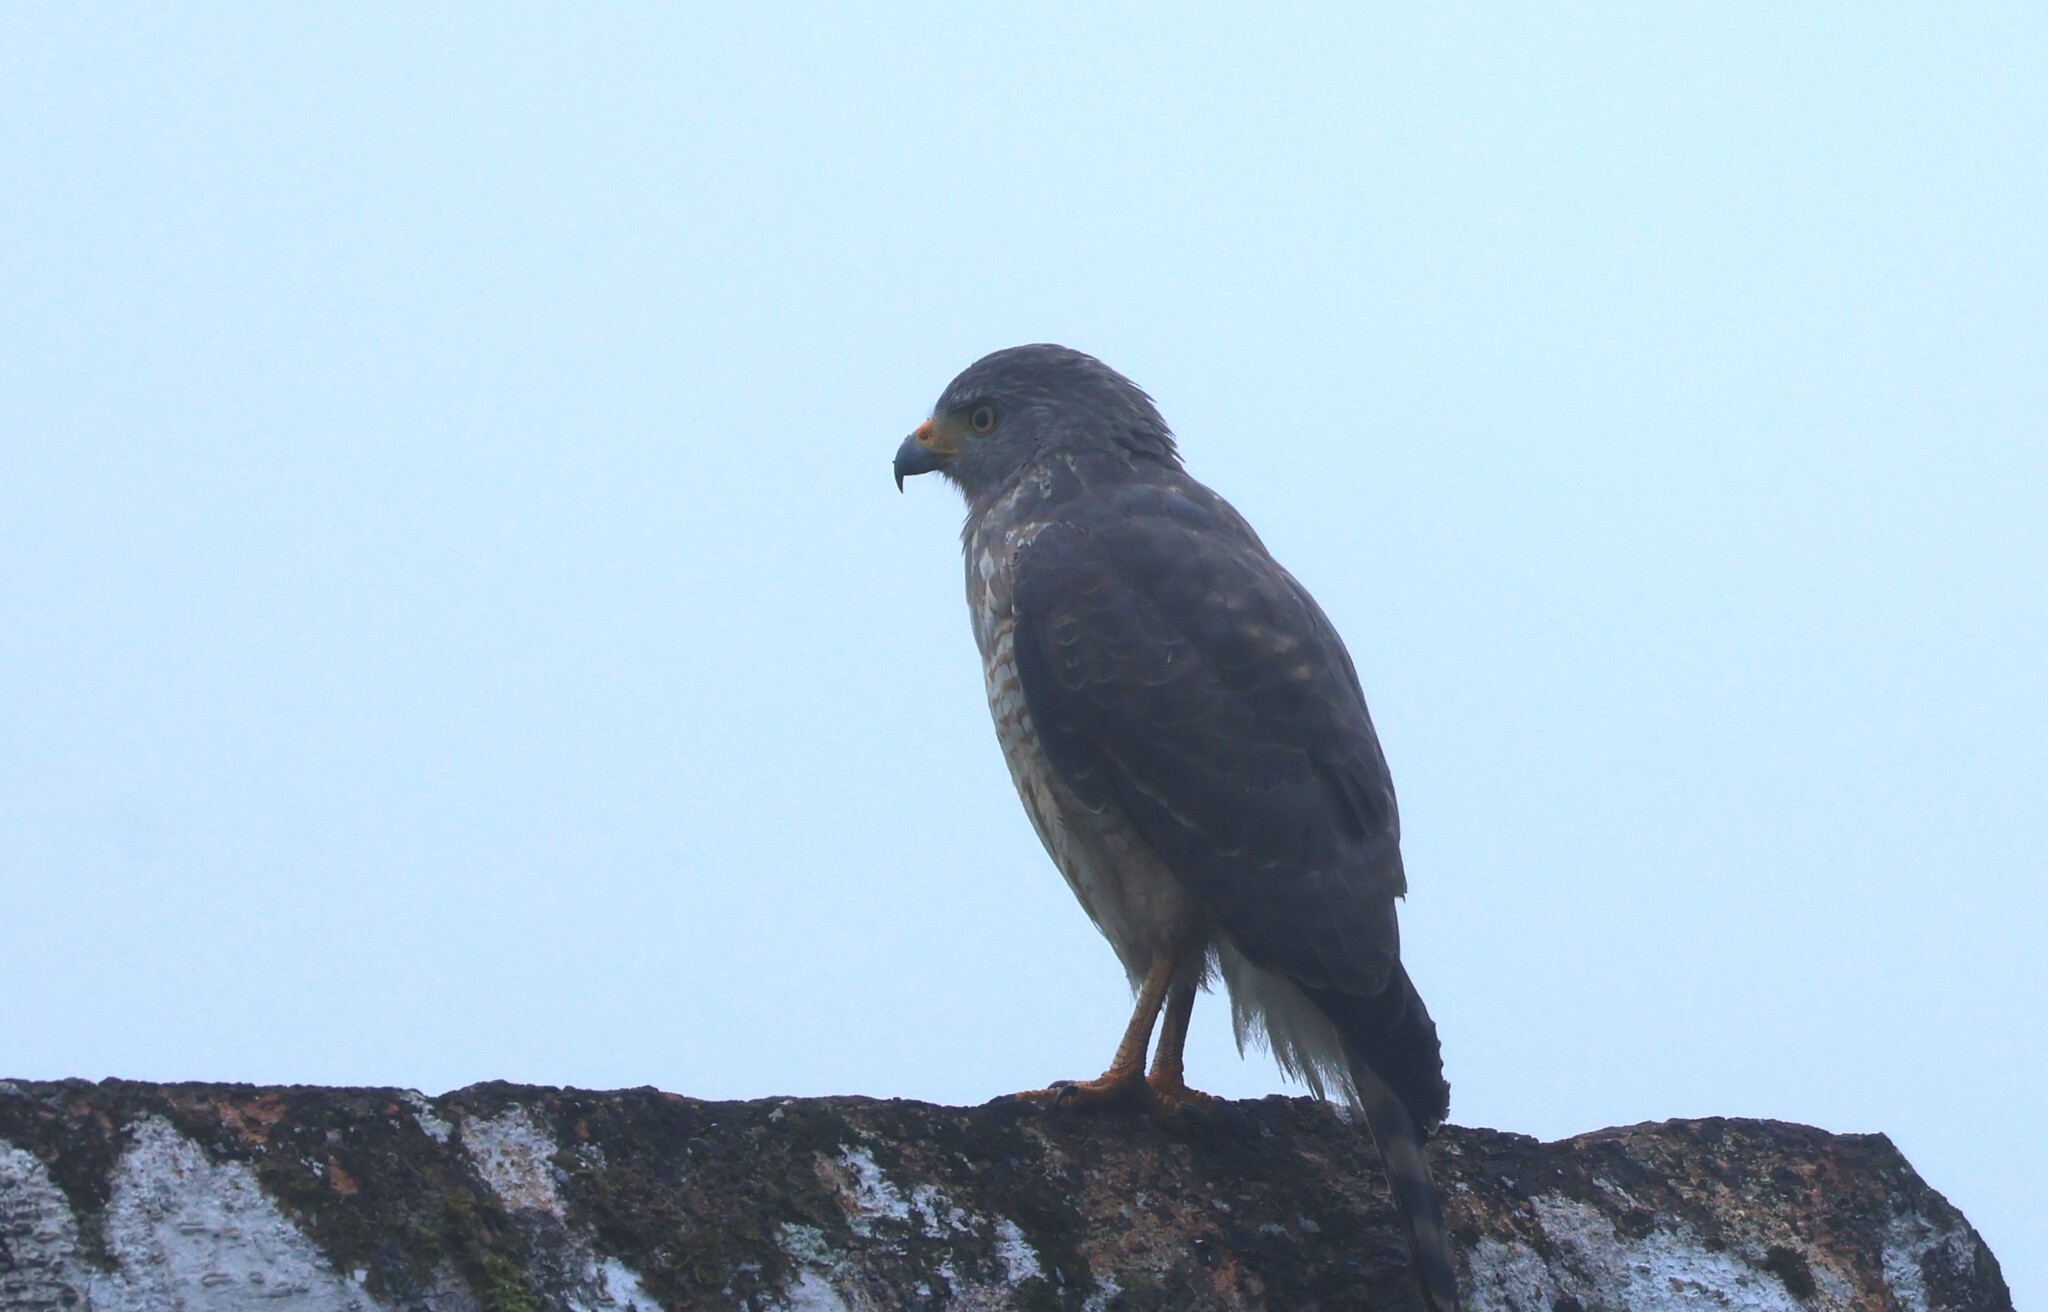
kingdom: Animalia
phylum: Chordata
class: Aves
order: Accipitriformes
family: Accipitridae
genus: Rupornis
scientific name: Rupornis magnirostris
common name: Roadside hawk
